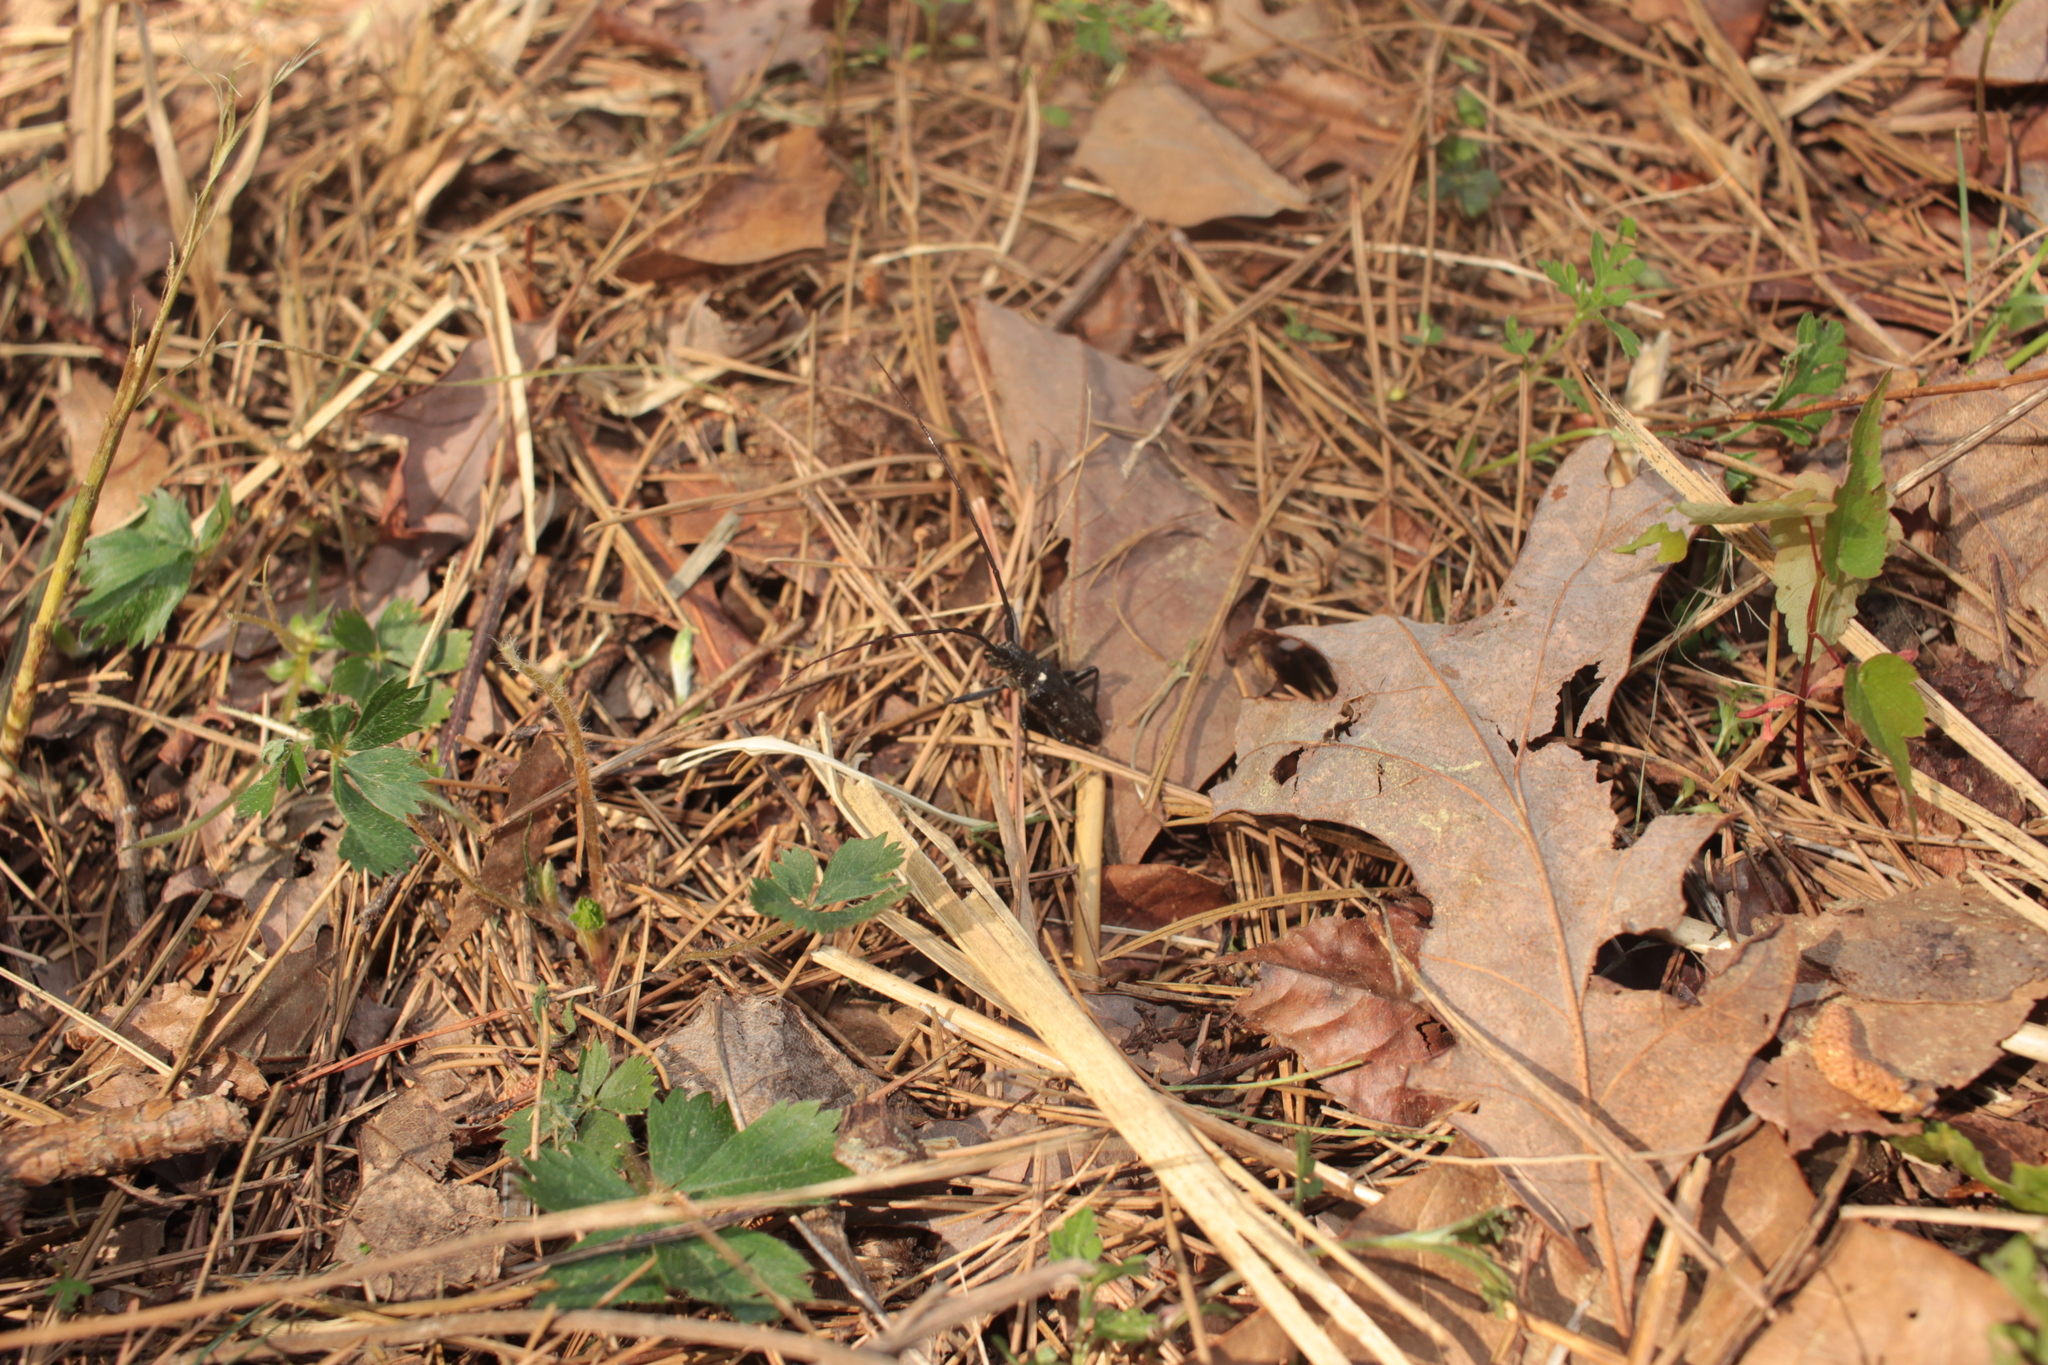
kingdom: Animalia
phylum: Arthropoda
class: Insecta
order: Coleoptera
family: Cerambycidae
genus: Monochamus
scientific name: Monochamus scutellatus
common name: White-spotted sawyer beetle
